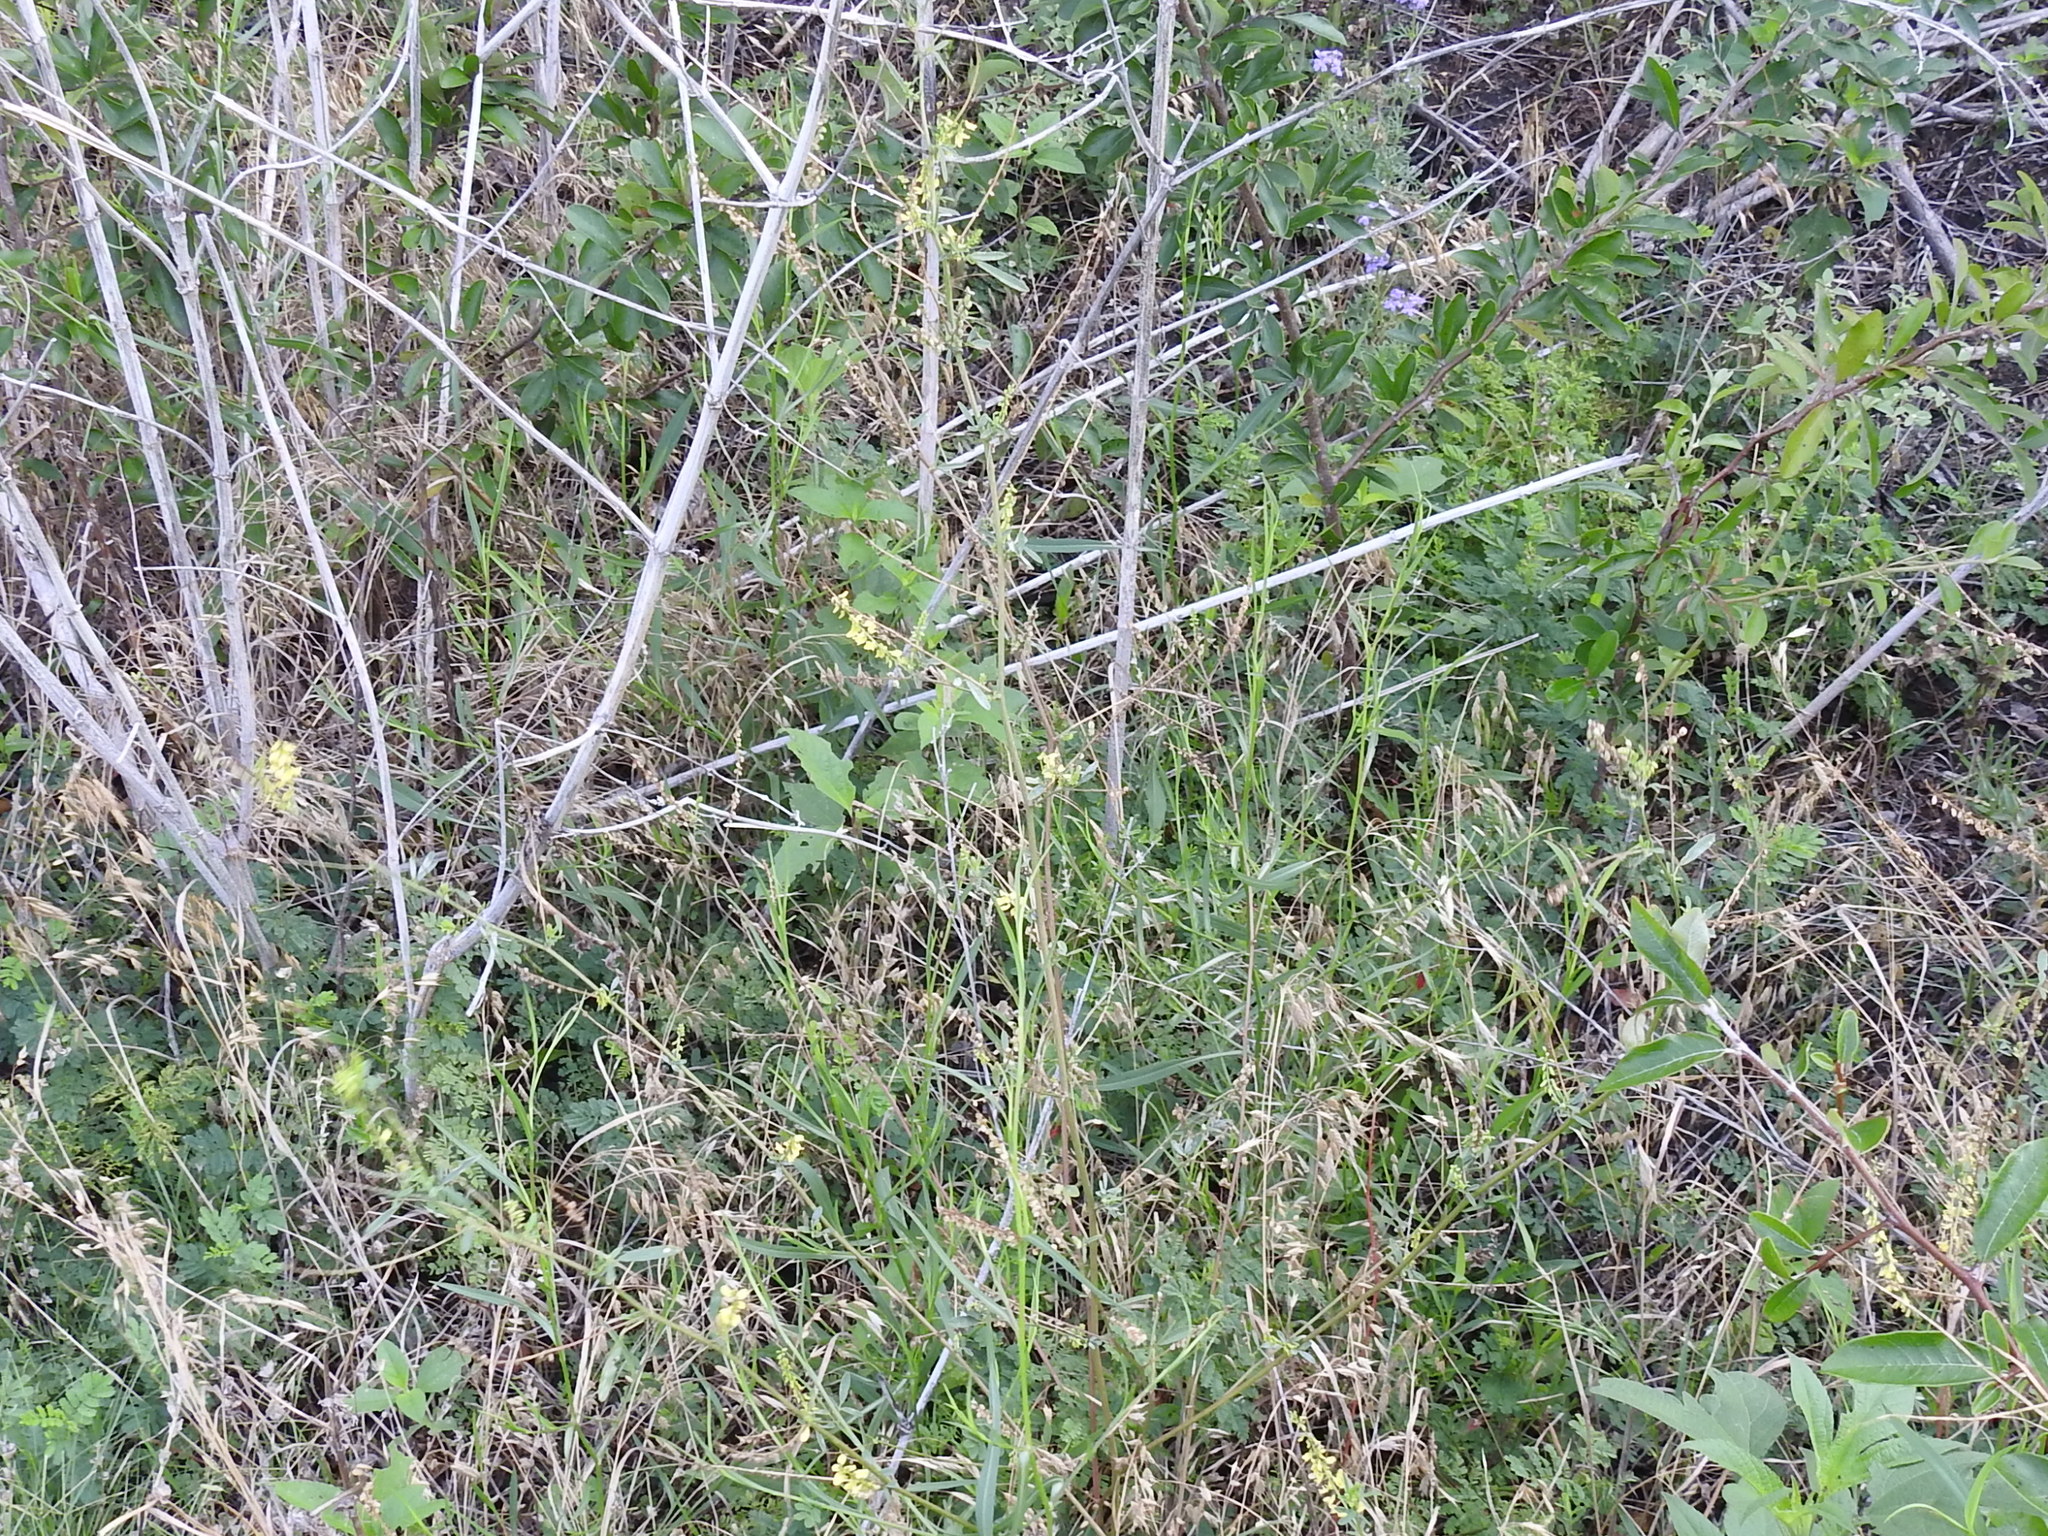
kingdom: Plantae
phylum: Tracheophyta
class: Magnoliopsida
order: Fabales
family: Fabaceae
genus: Melilotus
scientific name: Melilotus officinalis
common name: Sweetclover
